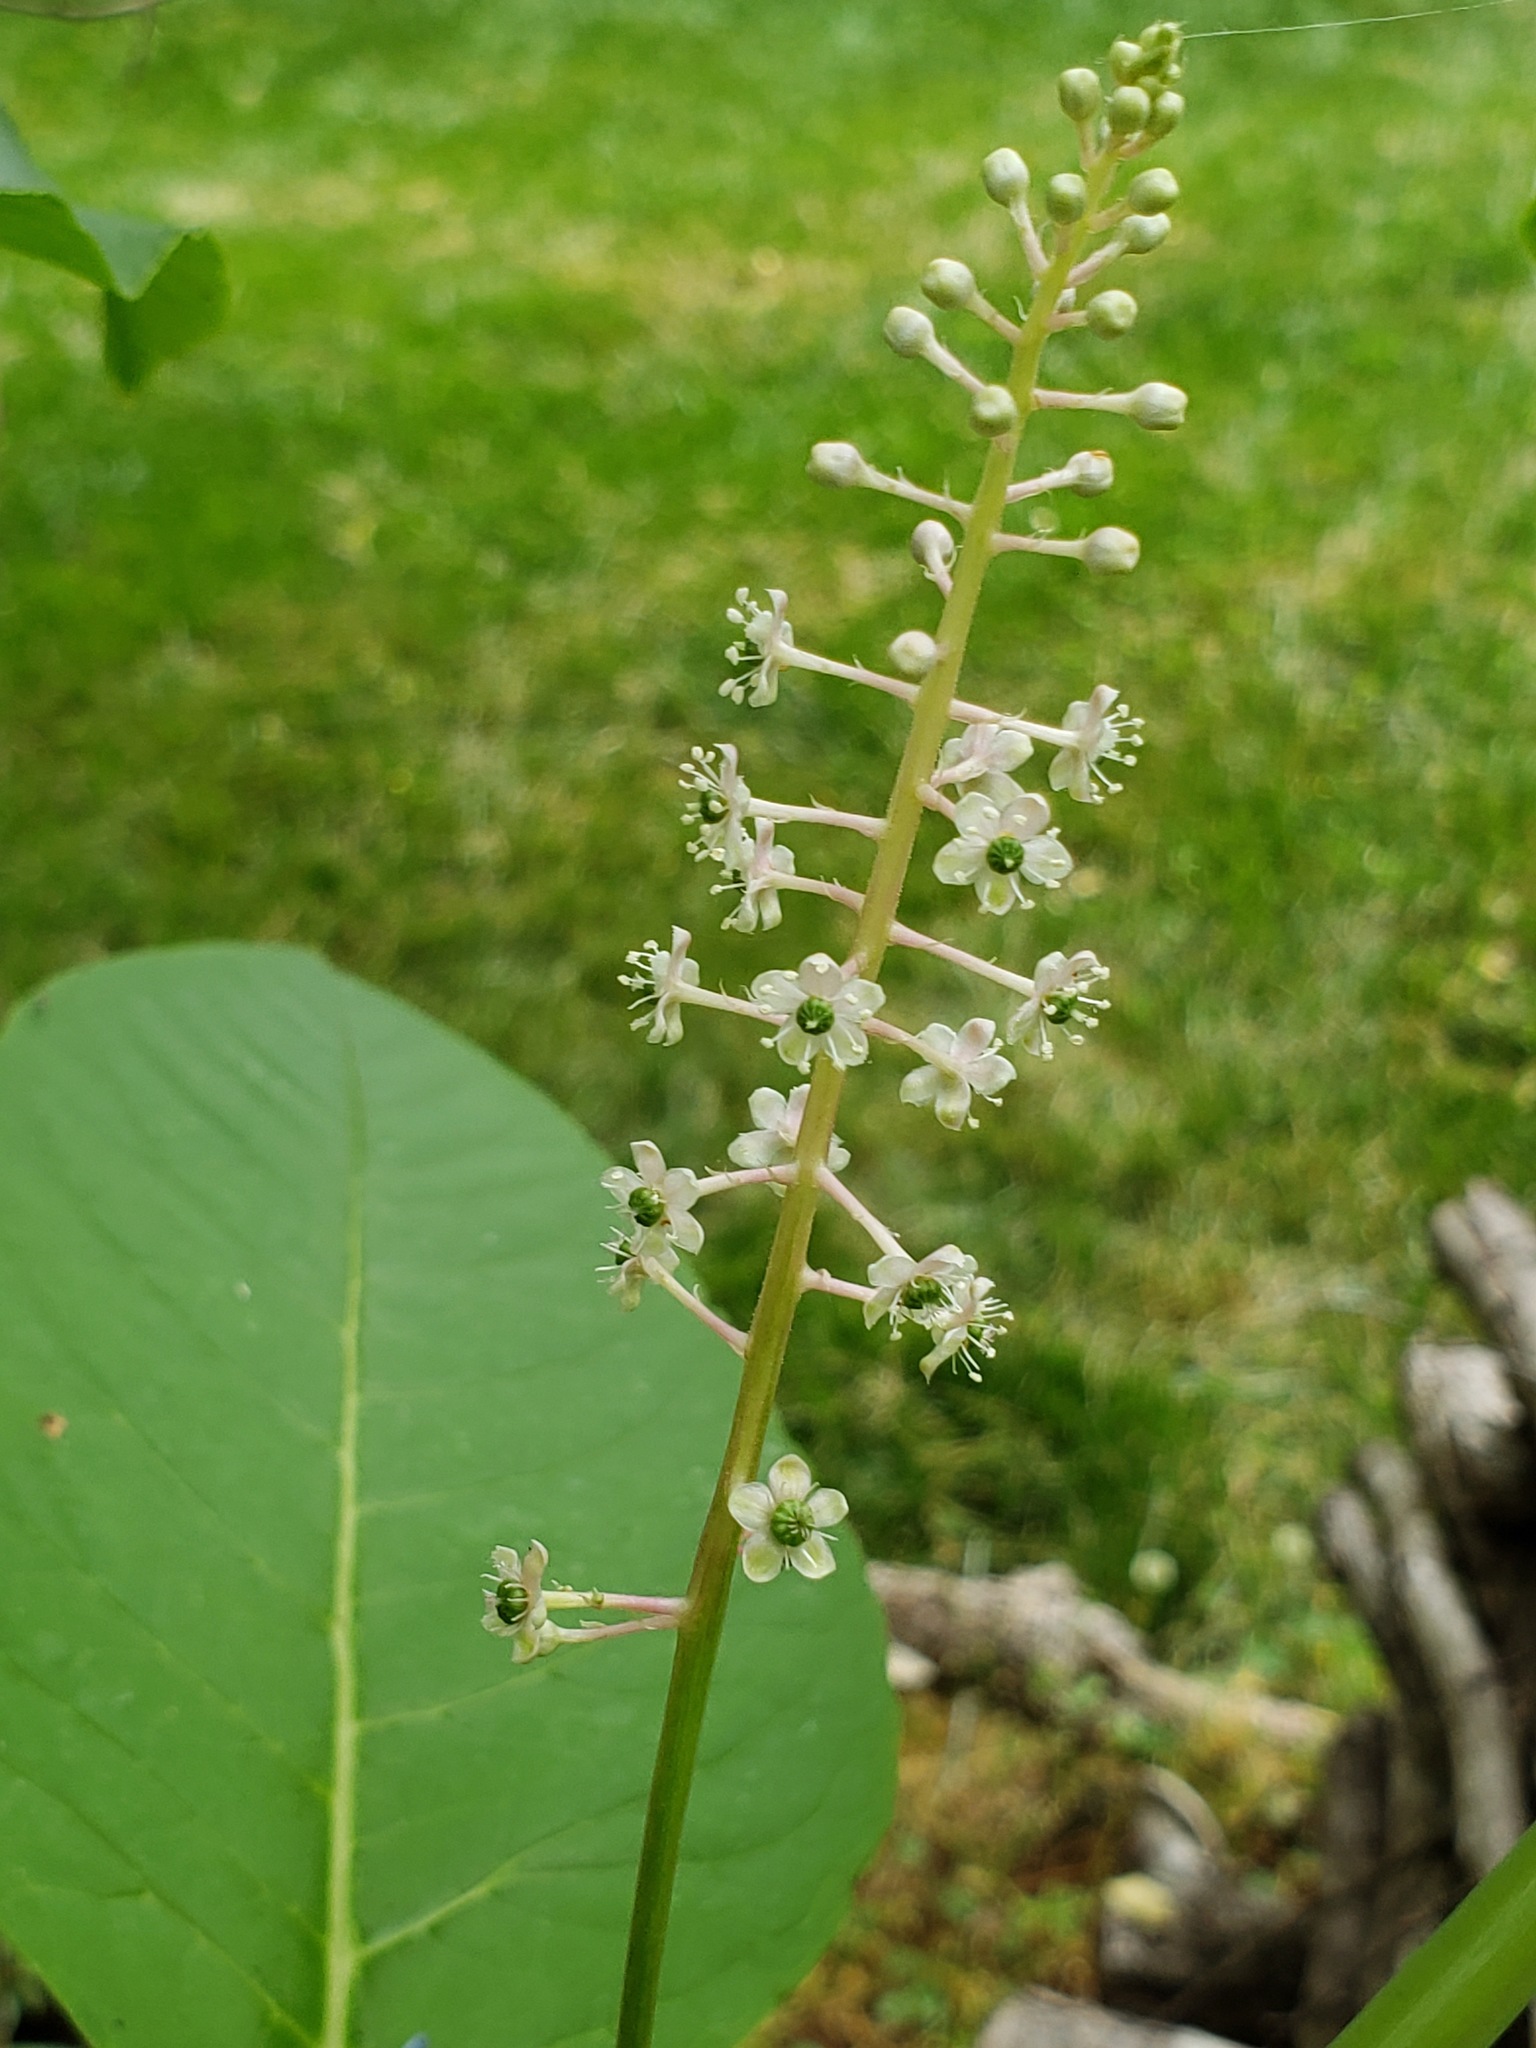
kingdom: Plantae
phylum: Tracheophyta
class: Magnoliopsida
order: Caryophyllales
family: Phytolaccaceae
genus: Phytolacca
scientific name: Phytolacca americana
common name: American pokeweed
